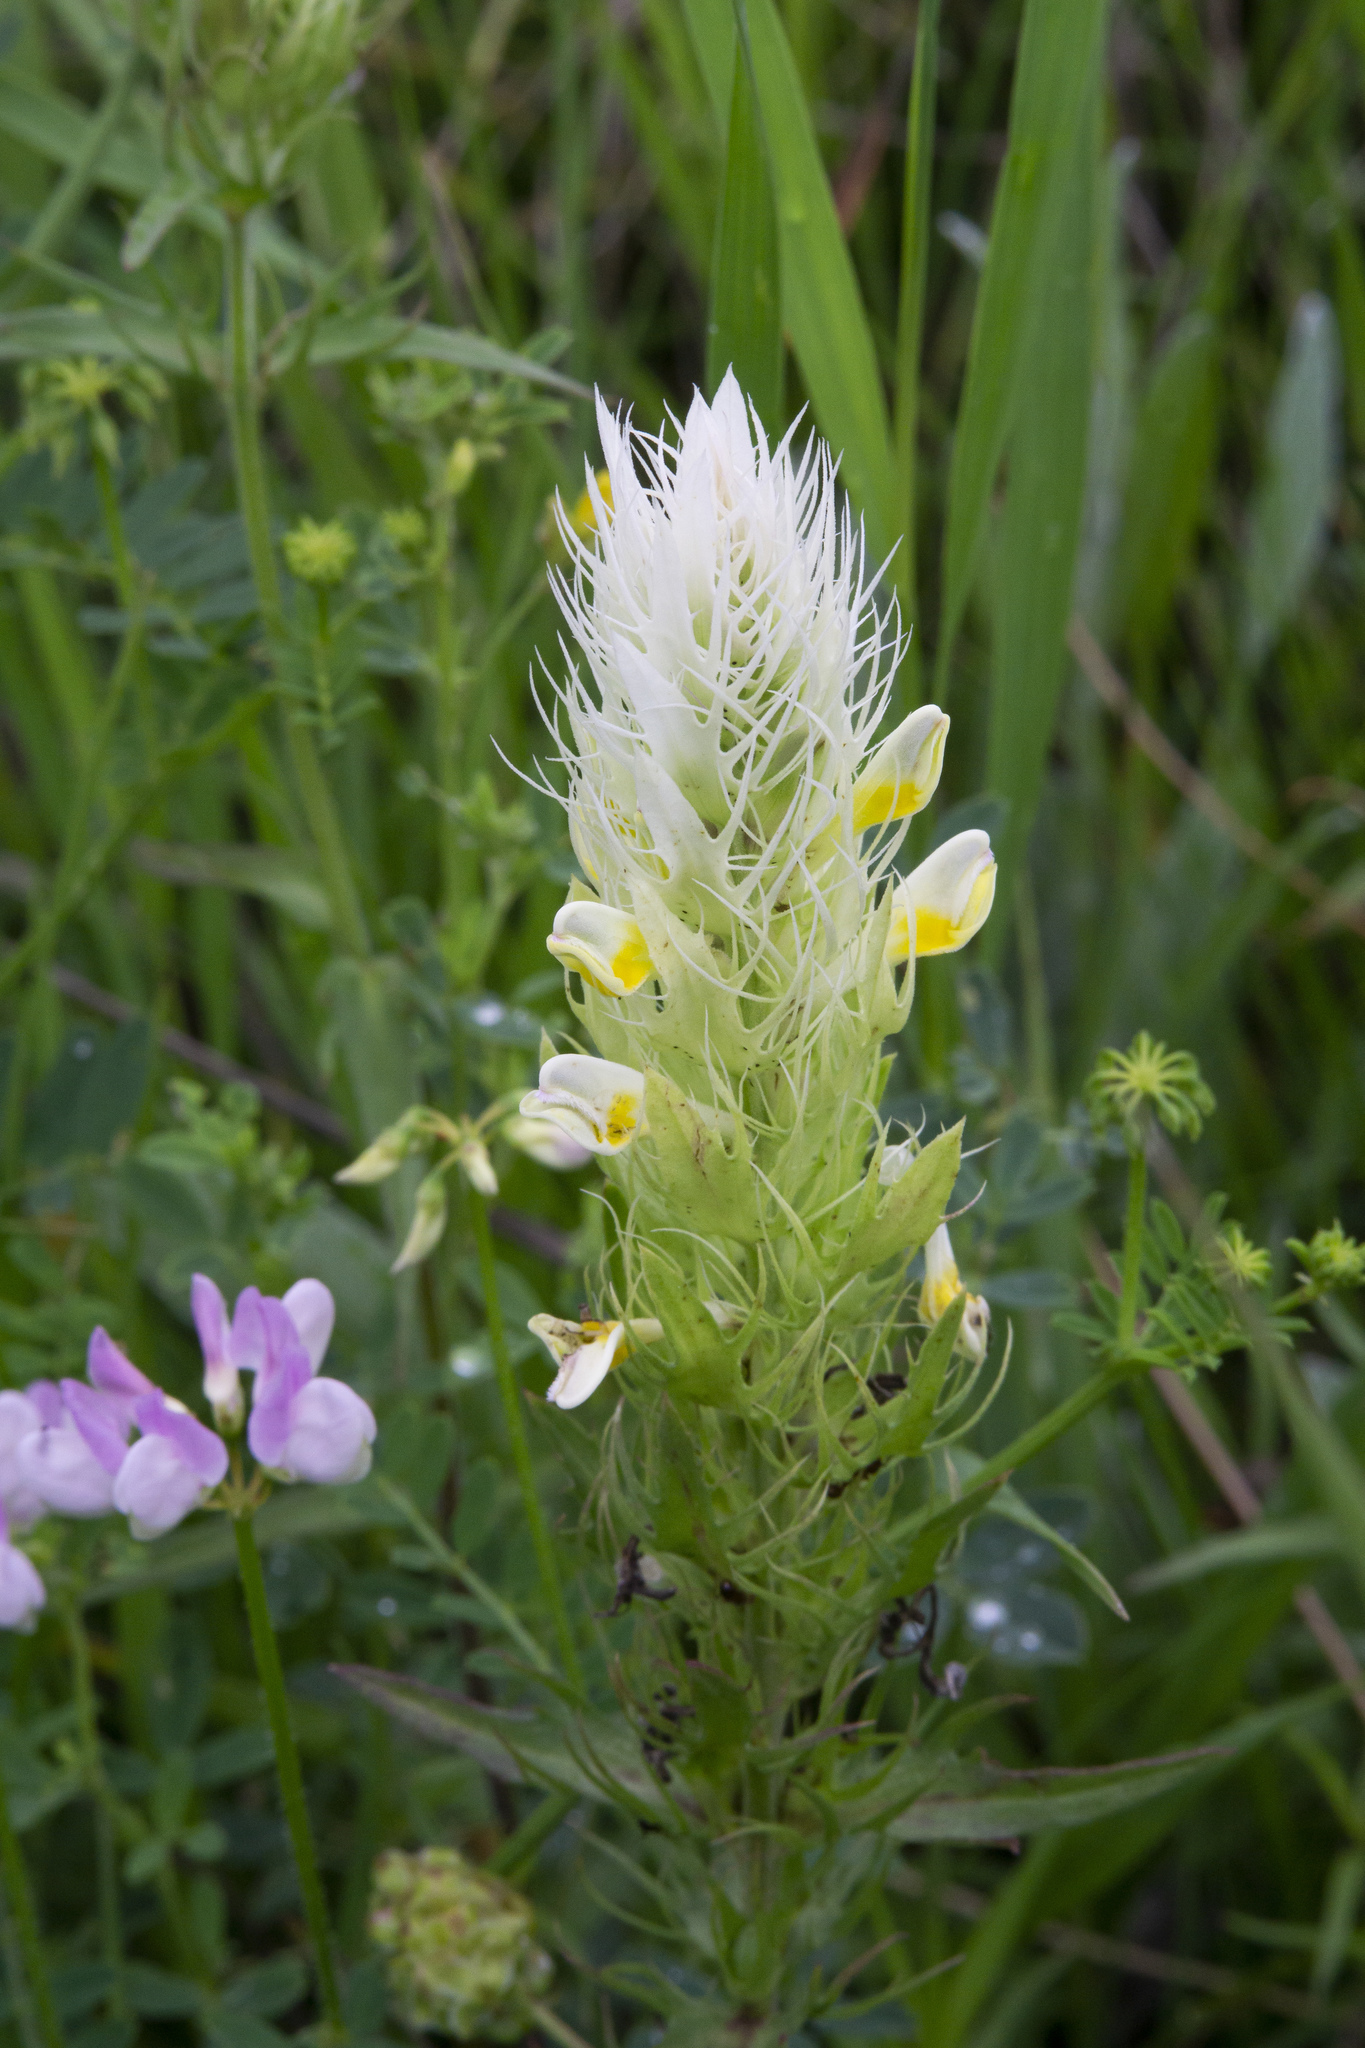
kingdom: Plantae
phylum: Tracheophyta
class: Magnoliopsida
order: Lamiales
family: Orobanchaceae
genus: Melampyrum
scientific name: Melampyrum arvense
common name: Field cow-wheat
